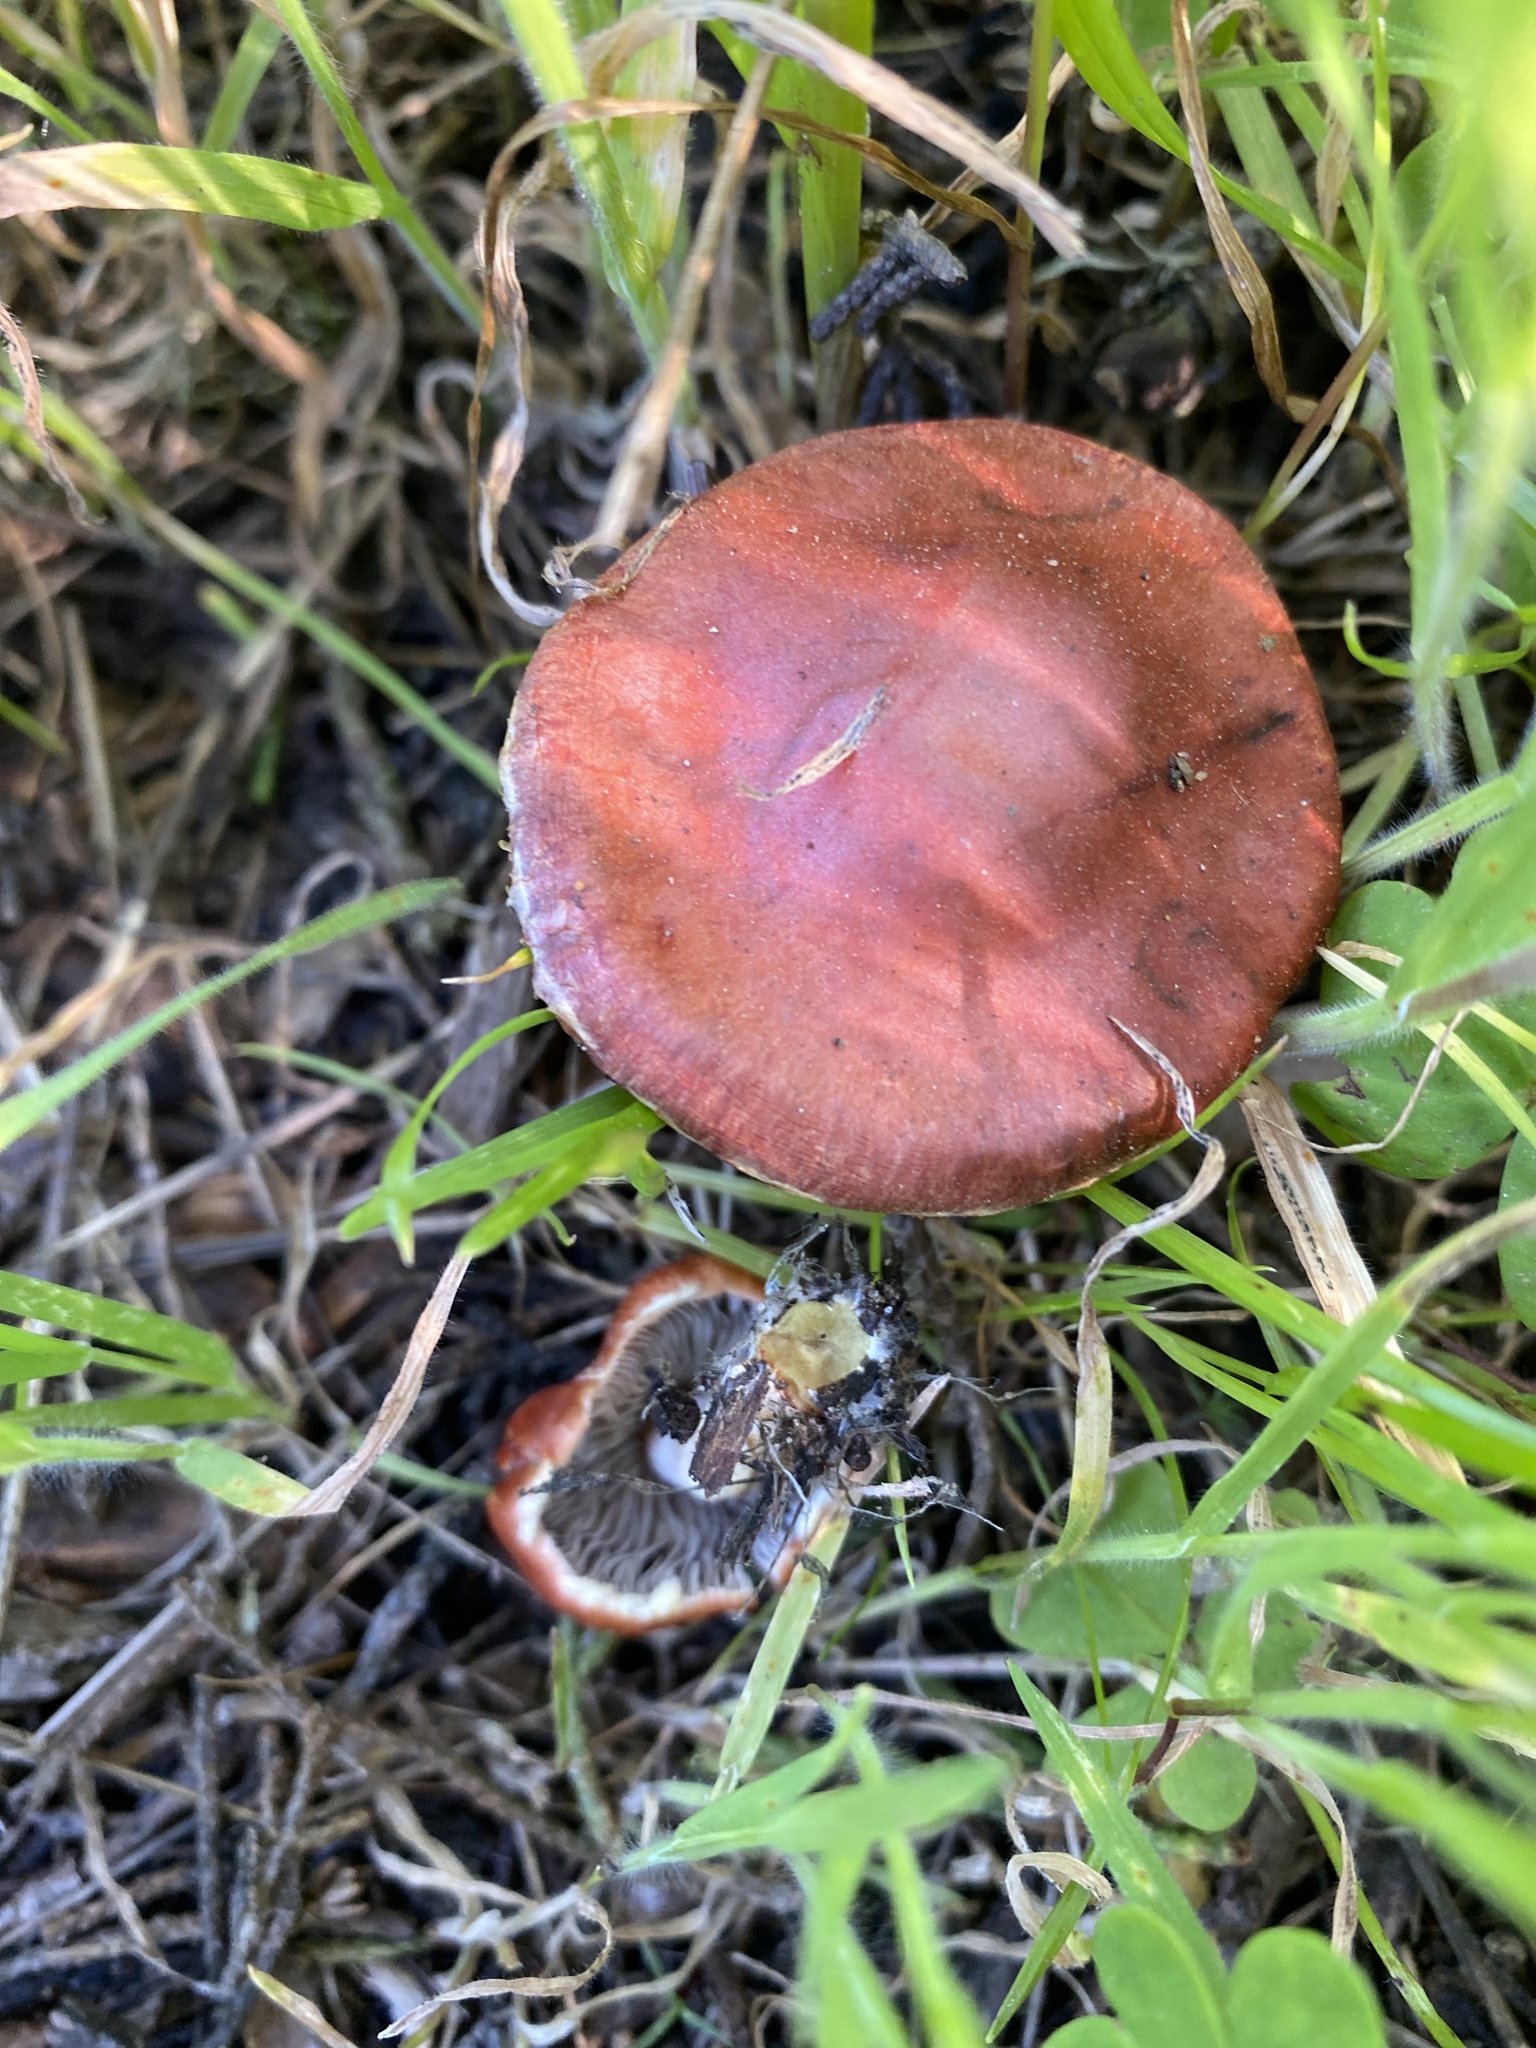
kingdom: Fungi
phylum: Basidiomycota
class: Agaricomycetes
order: Agaricales
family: Strophariaceae
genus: Leratiomyces
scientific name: Leratiomyces ceres
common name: Redlead roundhead
